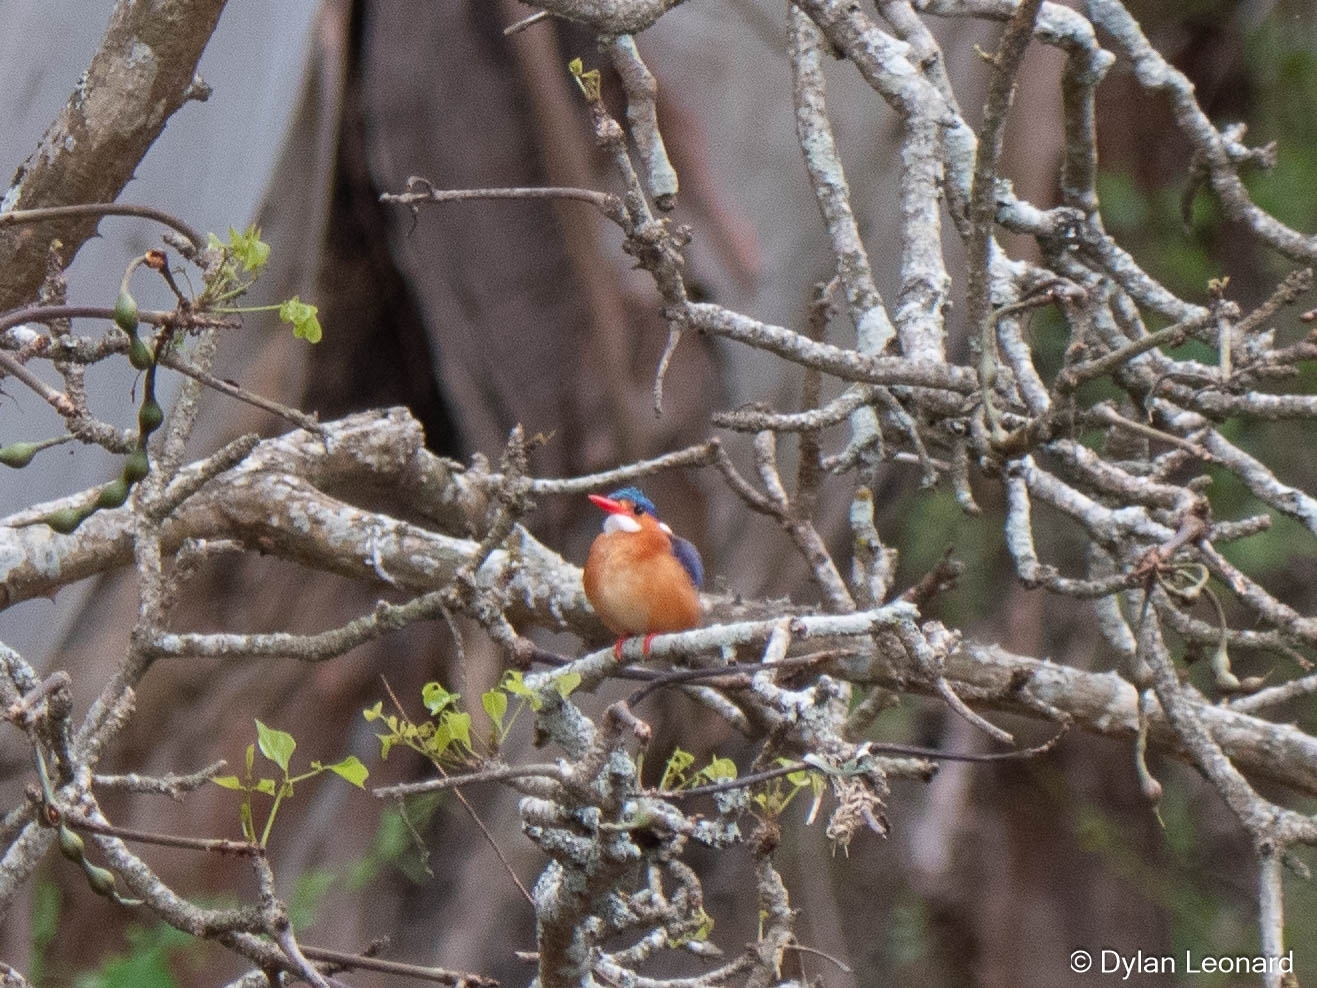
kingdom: Animalia
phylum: Chordata
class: Aves
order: Coraciiformes
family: Alcedinidae
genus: Corythornis
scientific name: Corythornis cristatus
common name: Malachite kingfisher
